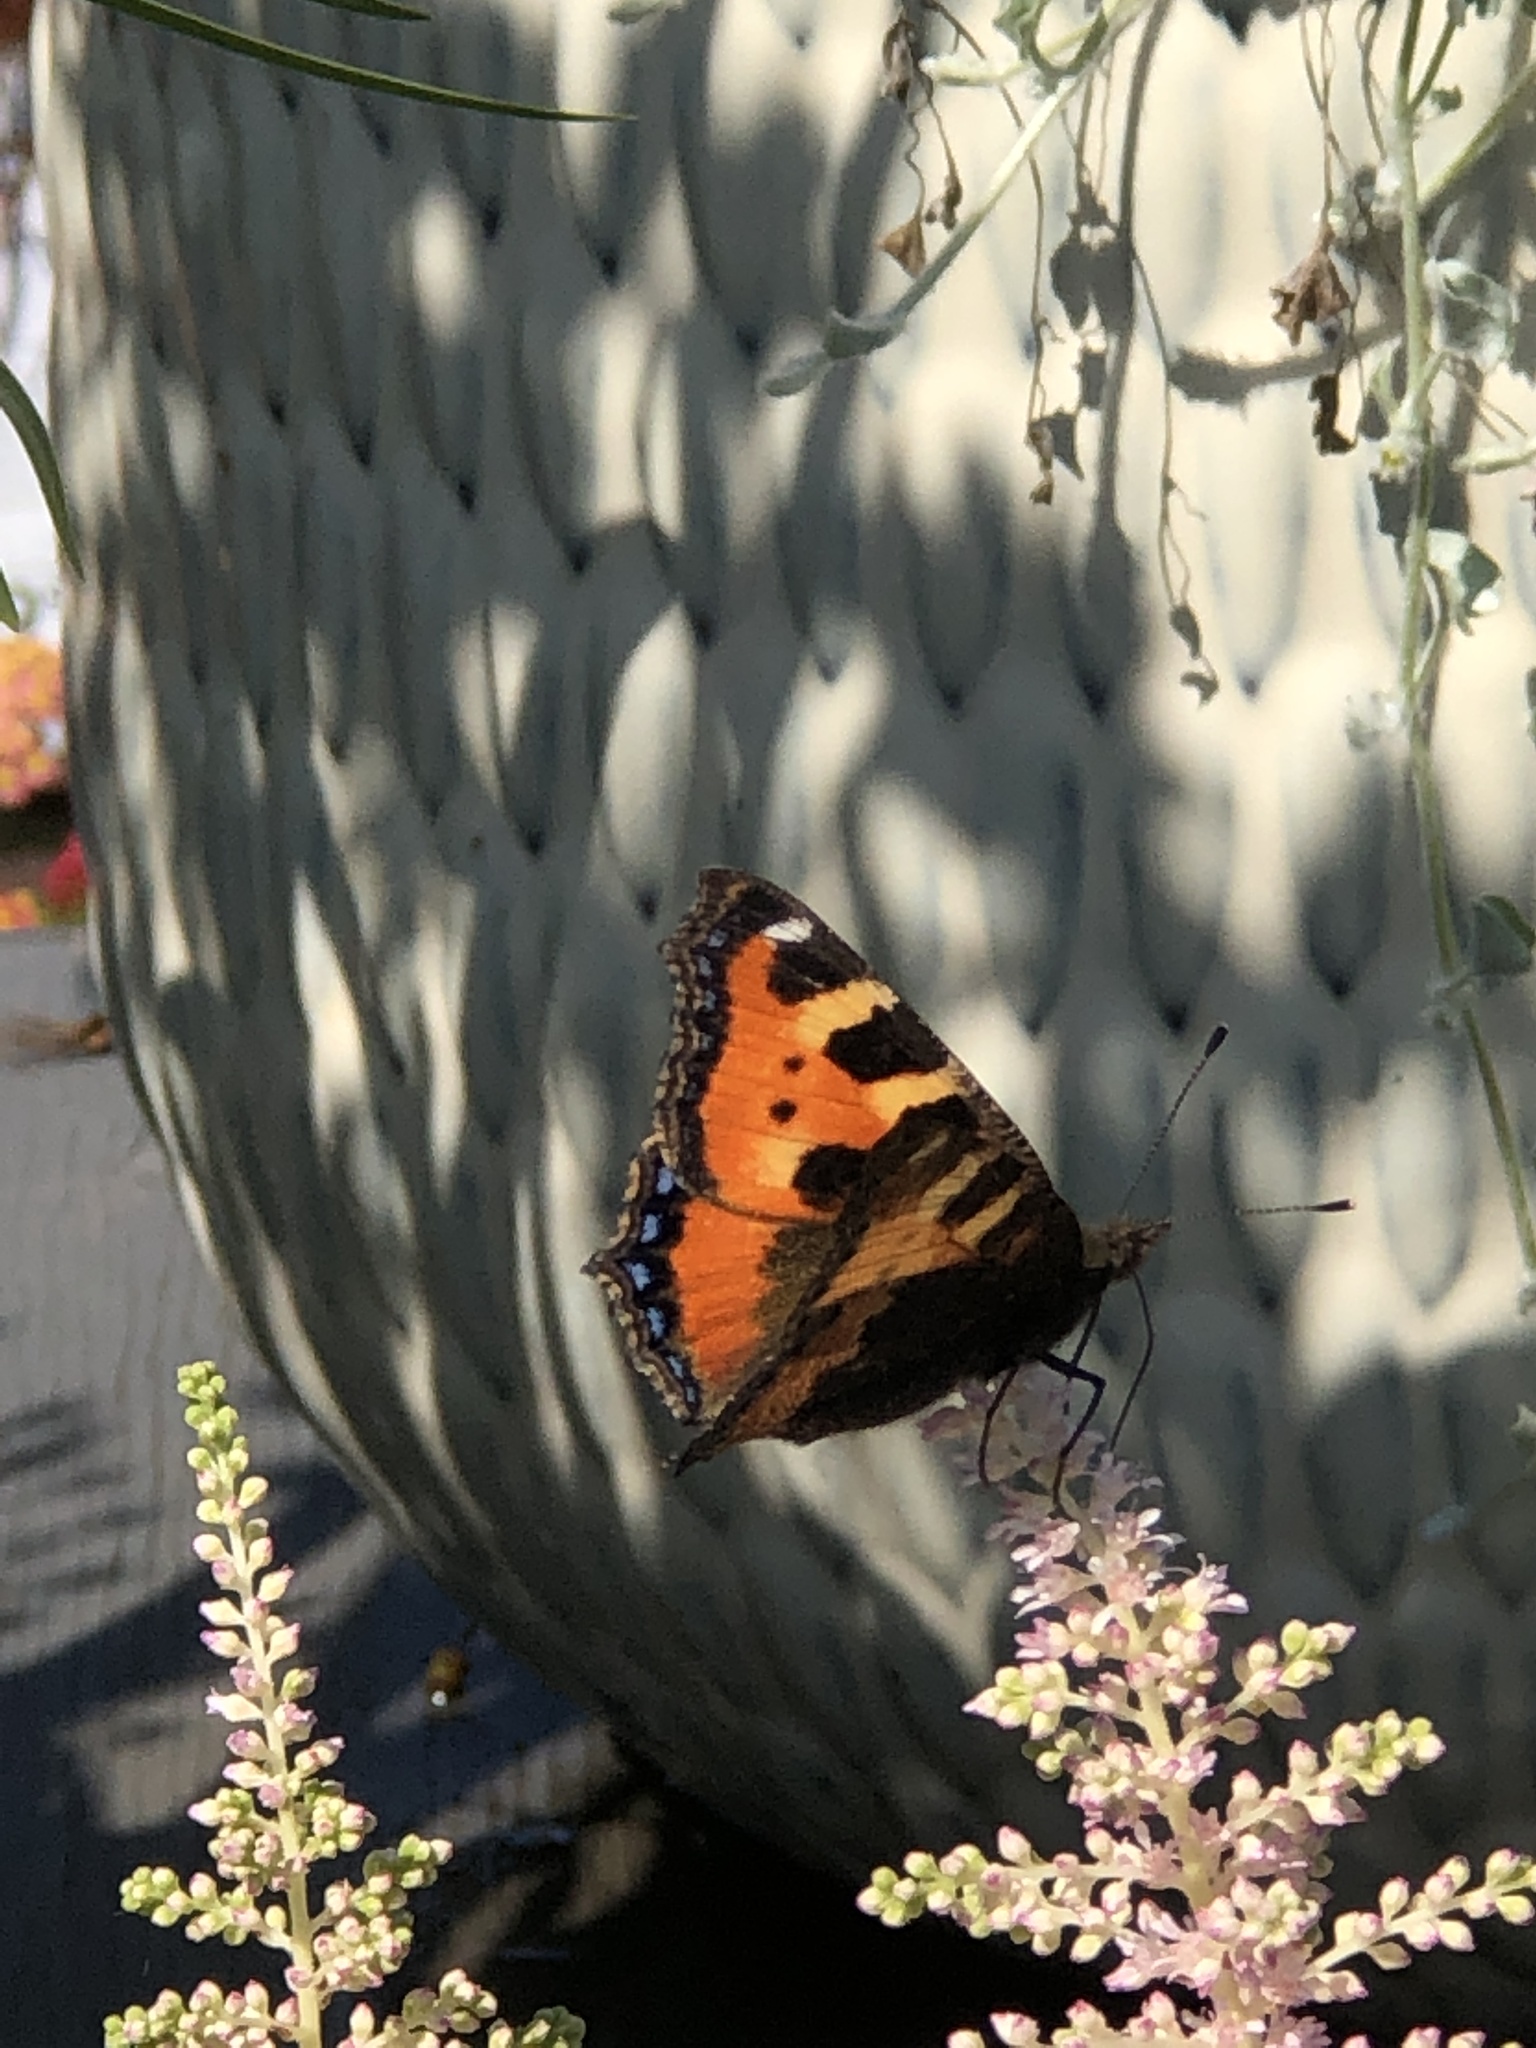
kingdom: Animalia
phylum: Arthropoda
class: Insecta
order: Lepidoptera
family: Nymphalidae
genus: Aglais
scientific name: Aglais urticae
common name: Small tortoiseshell
